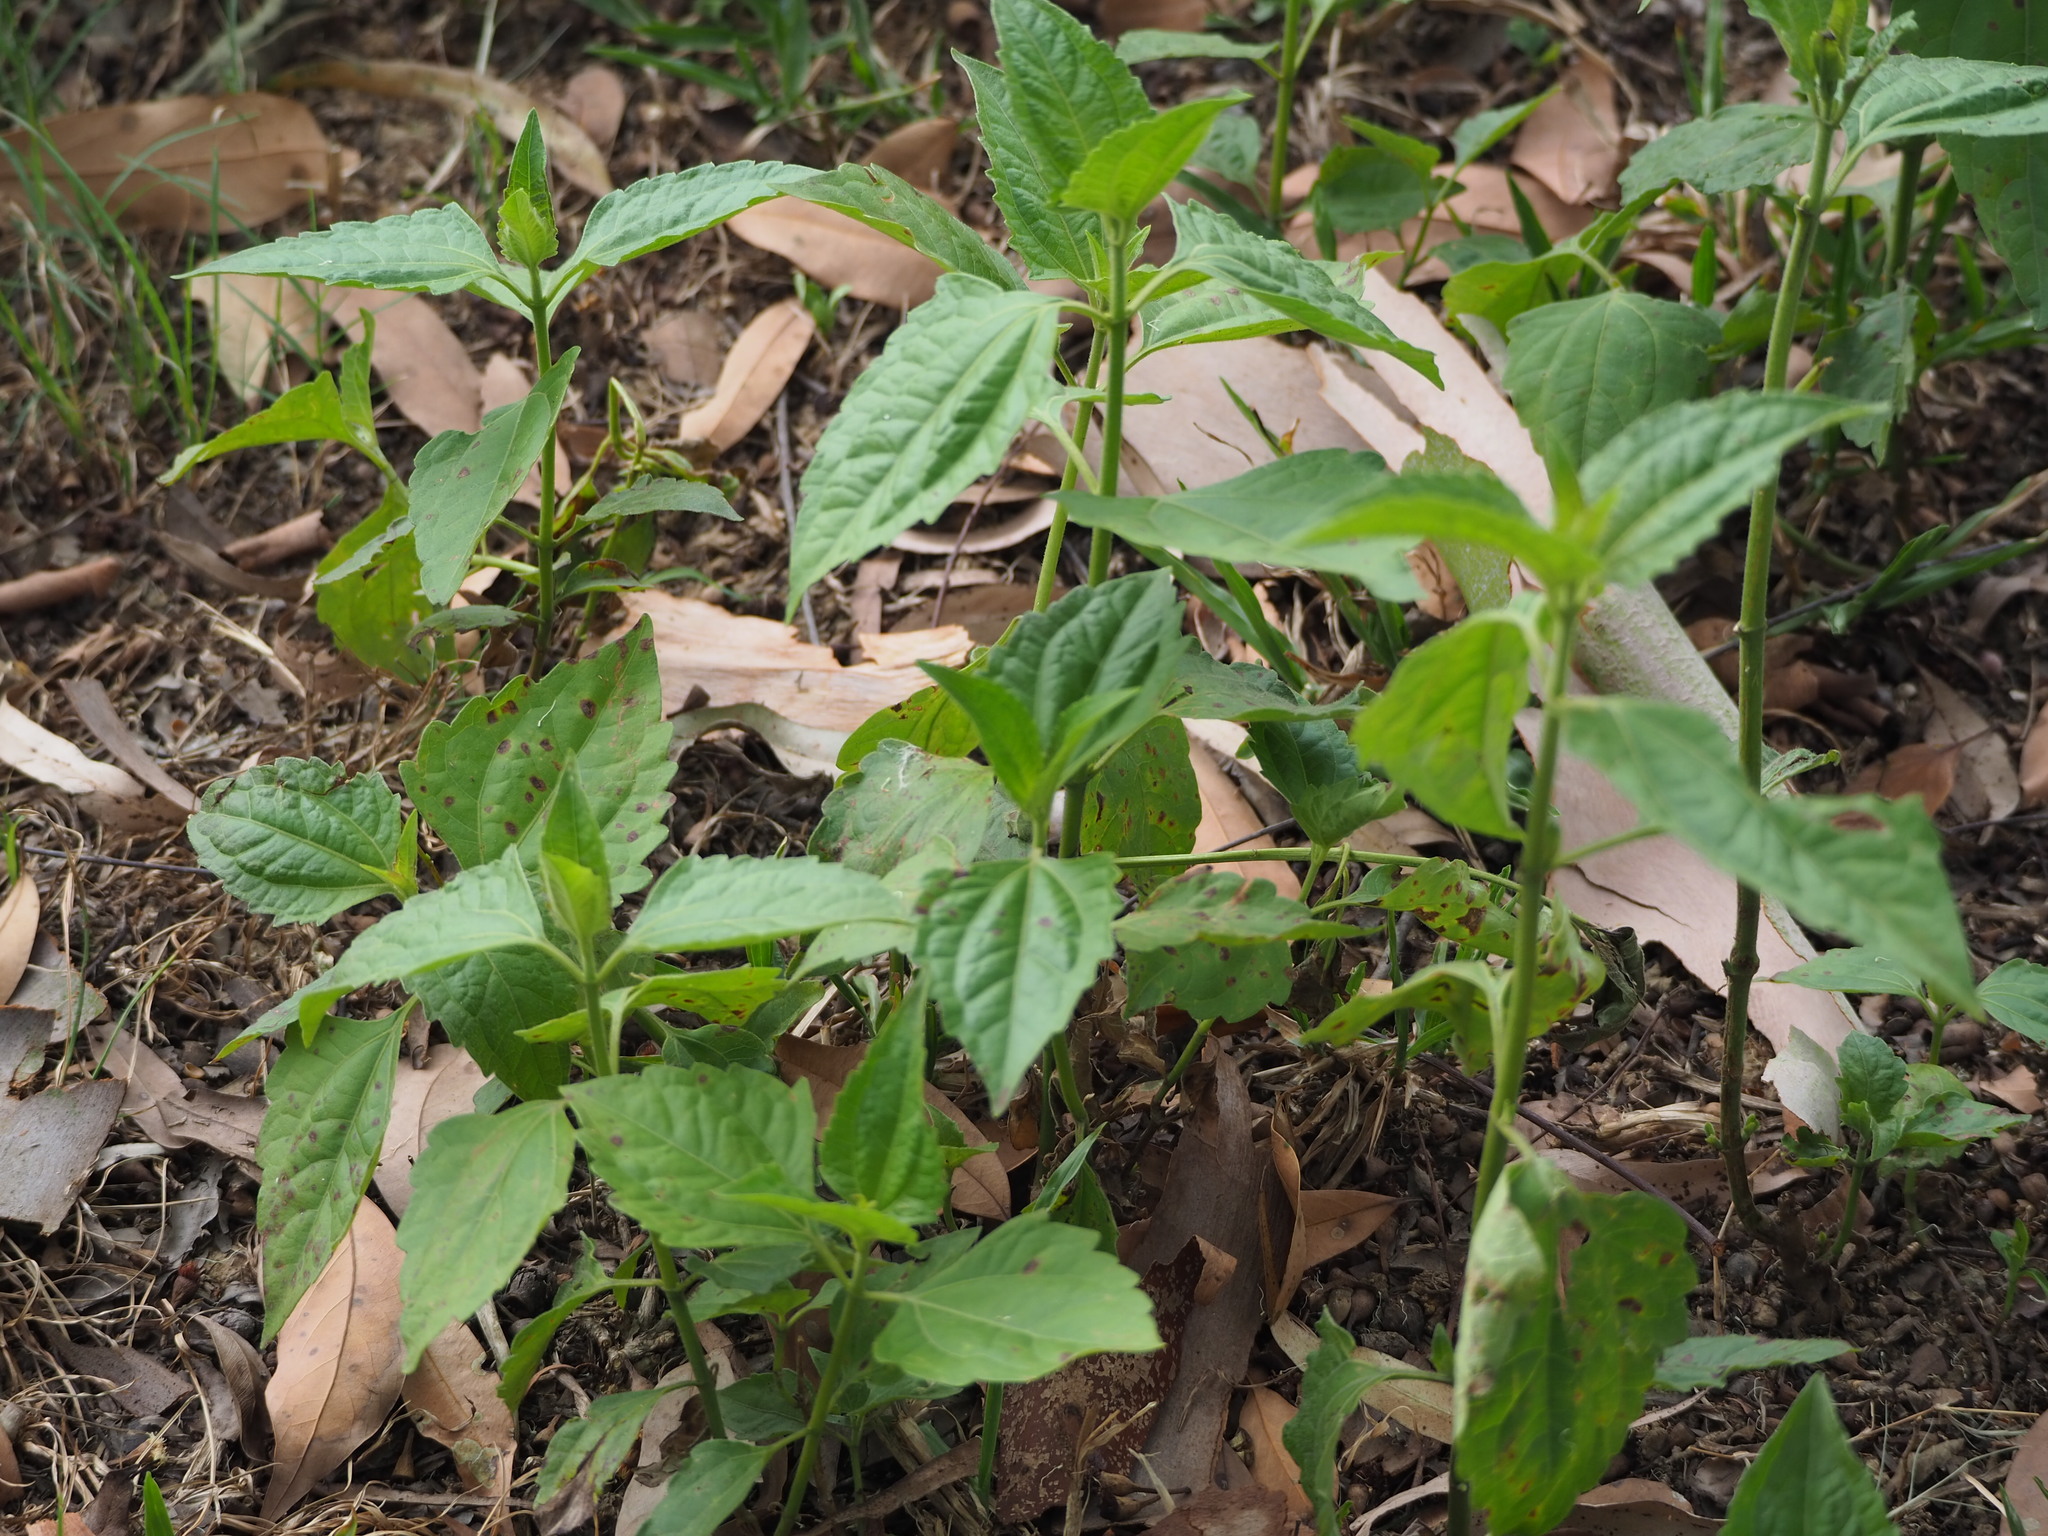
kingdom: Plantae
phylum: Tracheophyta
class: Magnoliopsida
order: Asterales
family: Asteraceae
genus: Chromolaena
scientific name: Chromolaena odorata
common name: Siamweed
